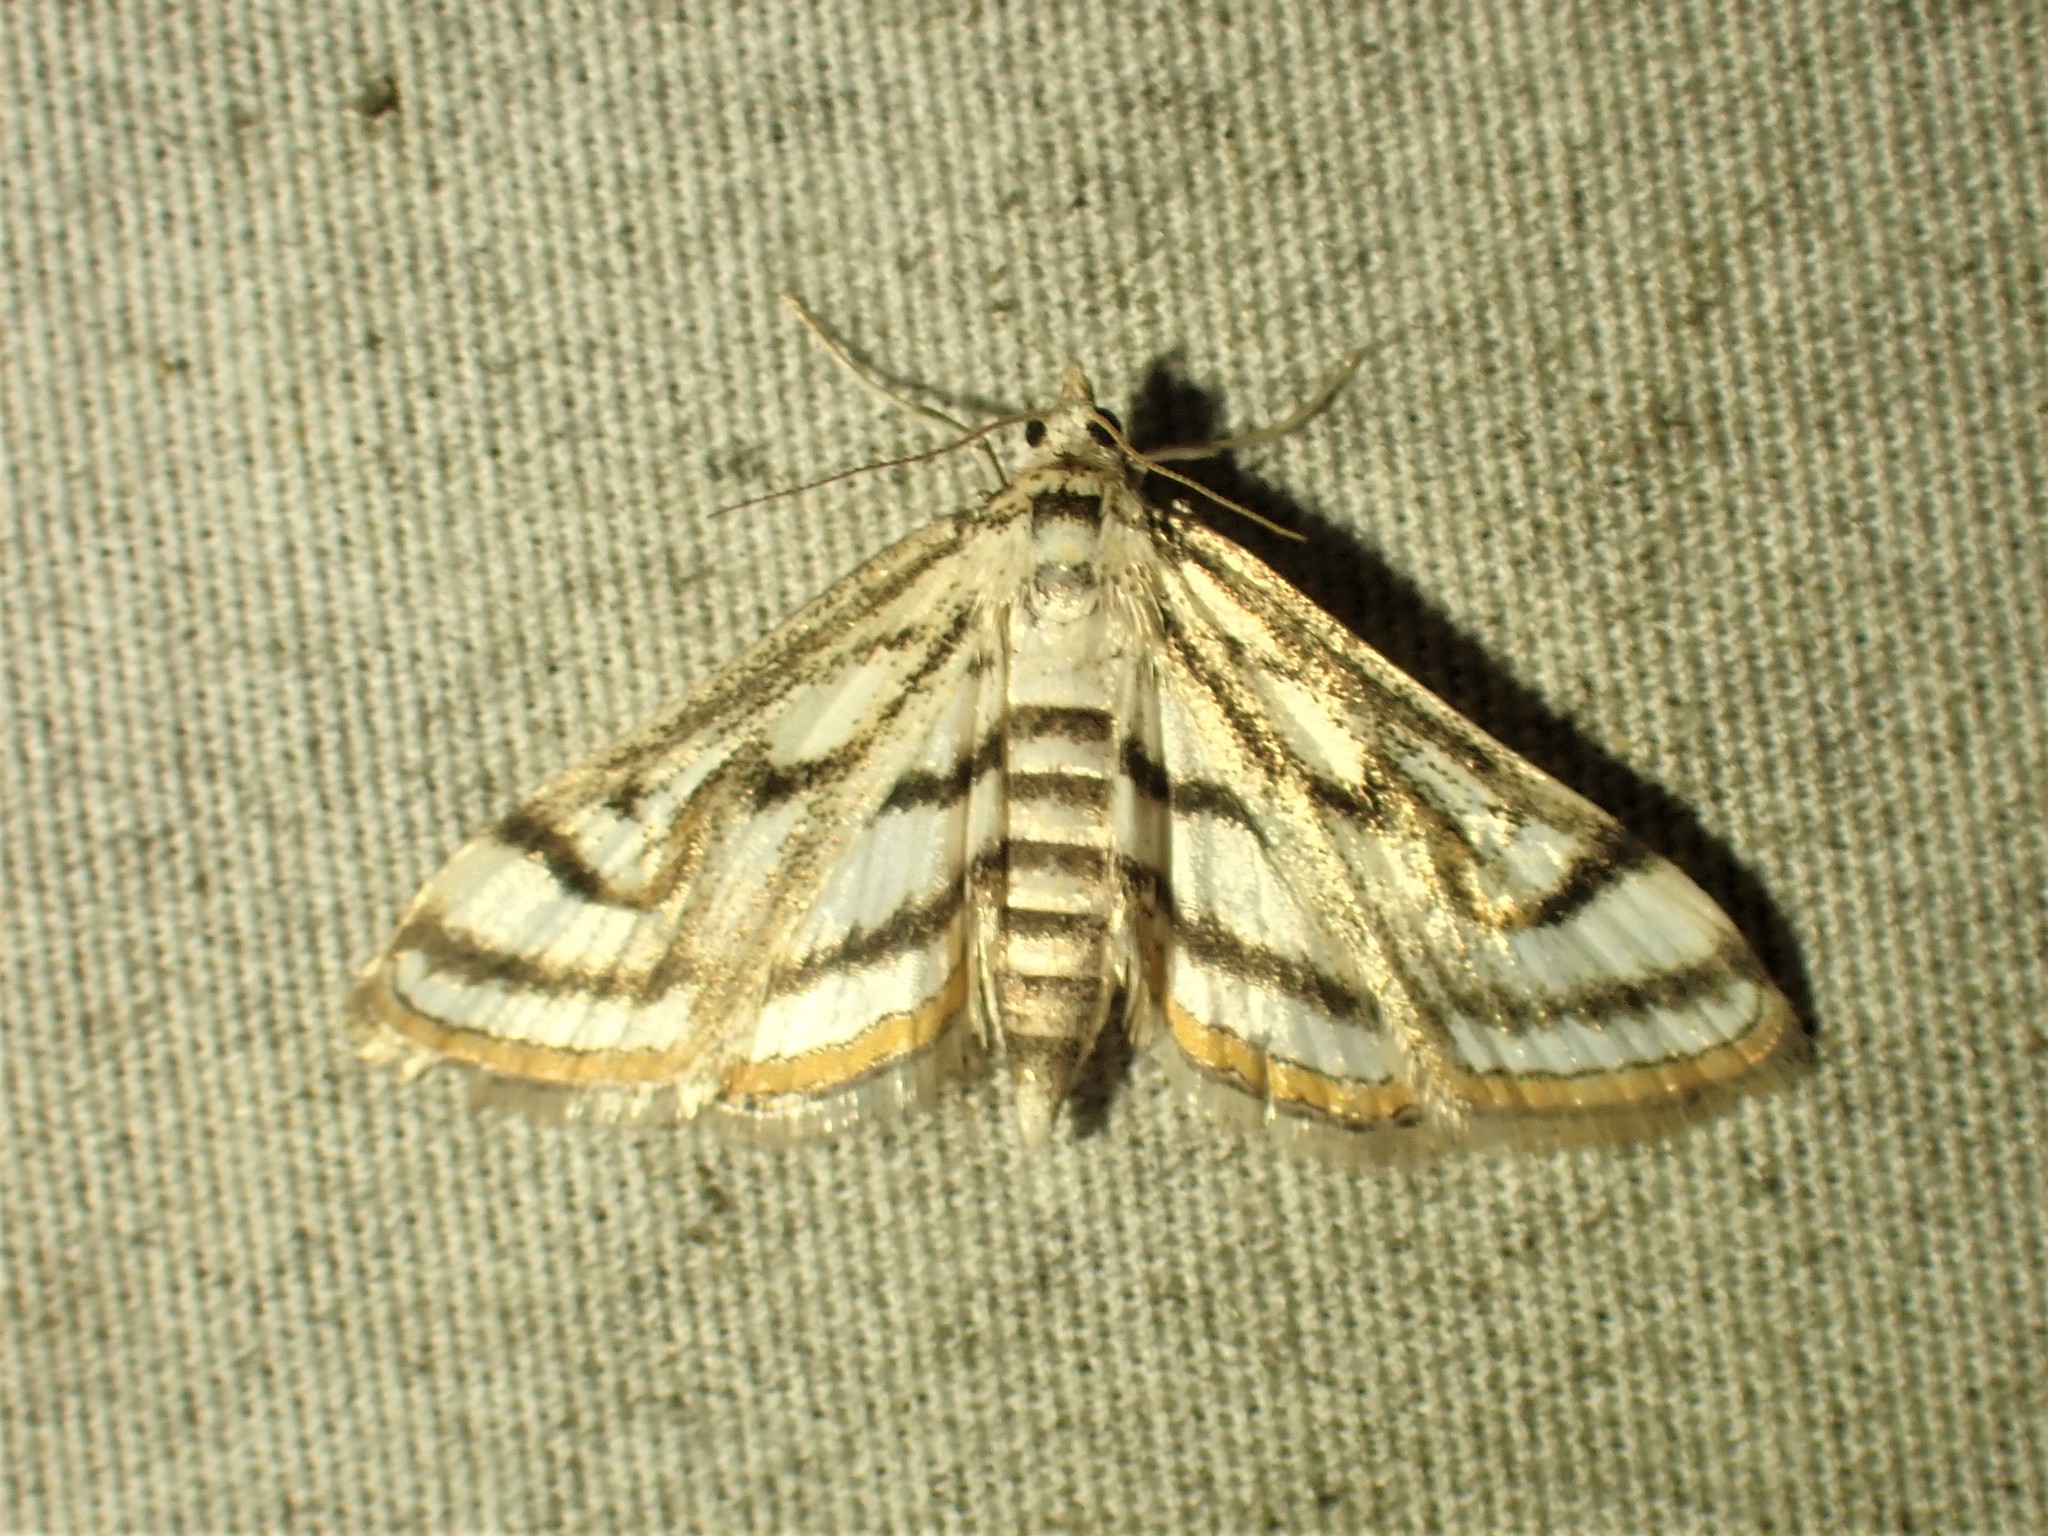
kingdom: Animalia
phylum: Arthropoda
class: Insecta
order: Lepidoptera
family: Crambidae
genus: Parapoynx
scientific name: Parapoynx badiusalis
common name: Chestnut-marked pondweed moth
